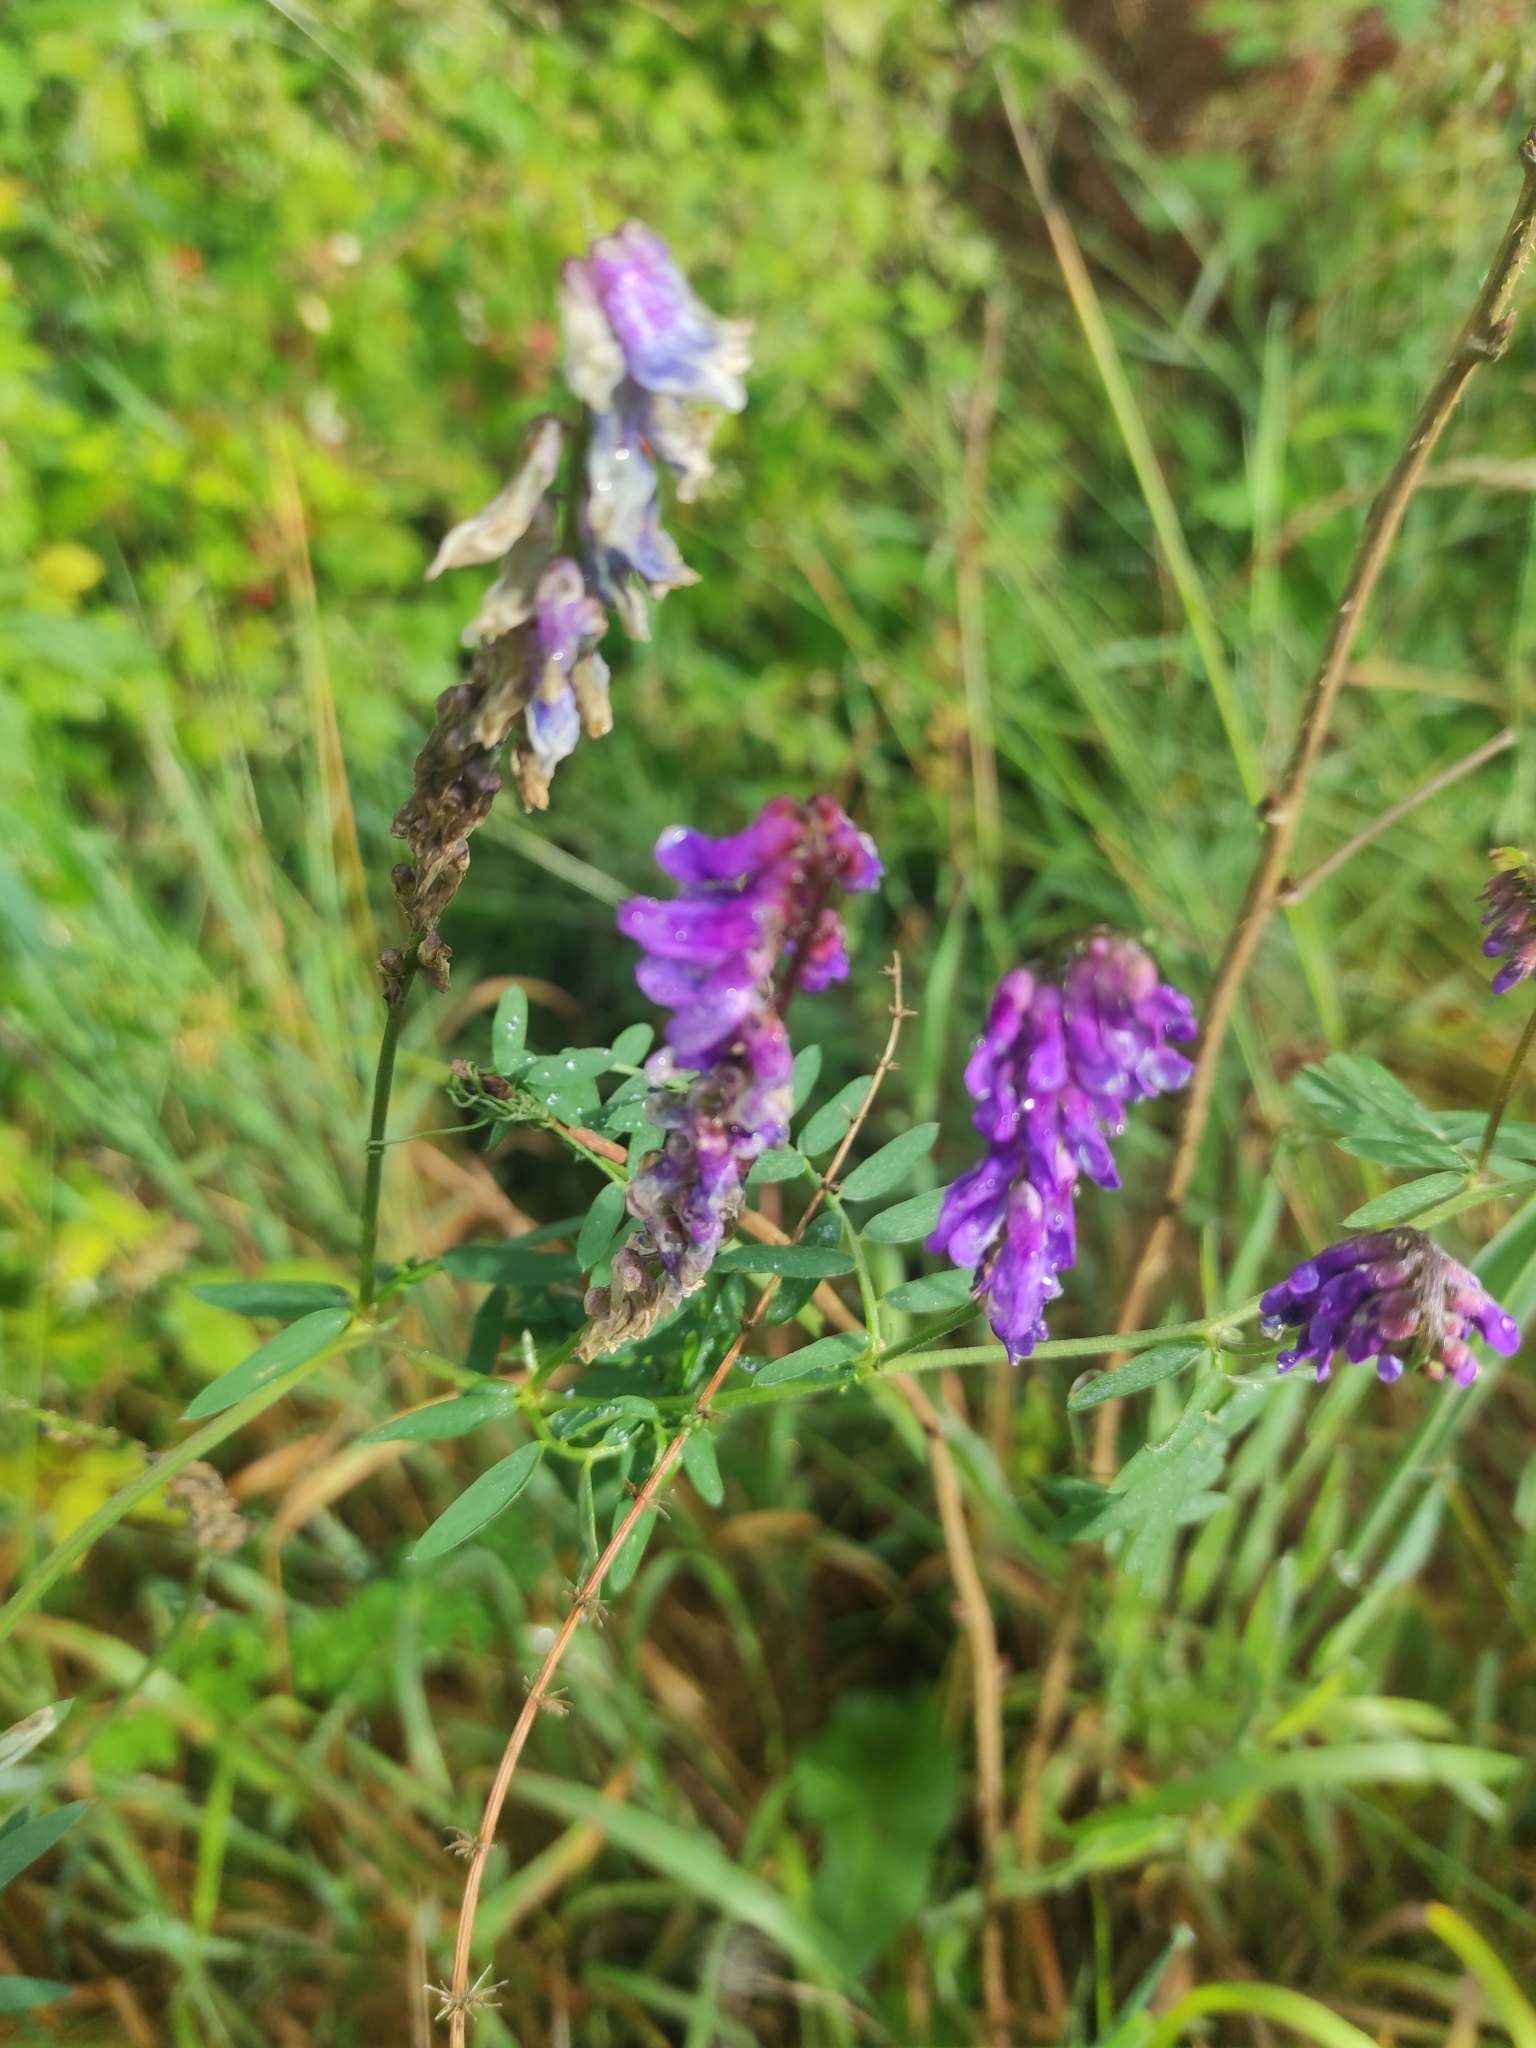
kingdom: Plantae
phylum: Tracheophyta
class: Magnoliopsida
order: Fabales
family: Fabaceae
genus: Vicia
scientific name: Vicia cracca
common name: Bird vetch
